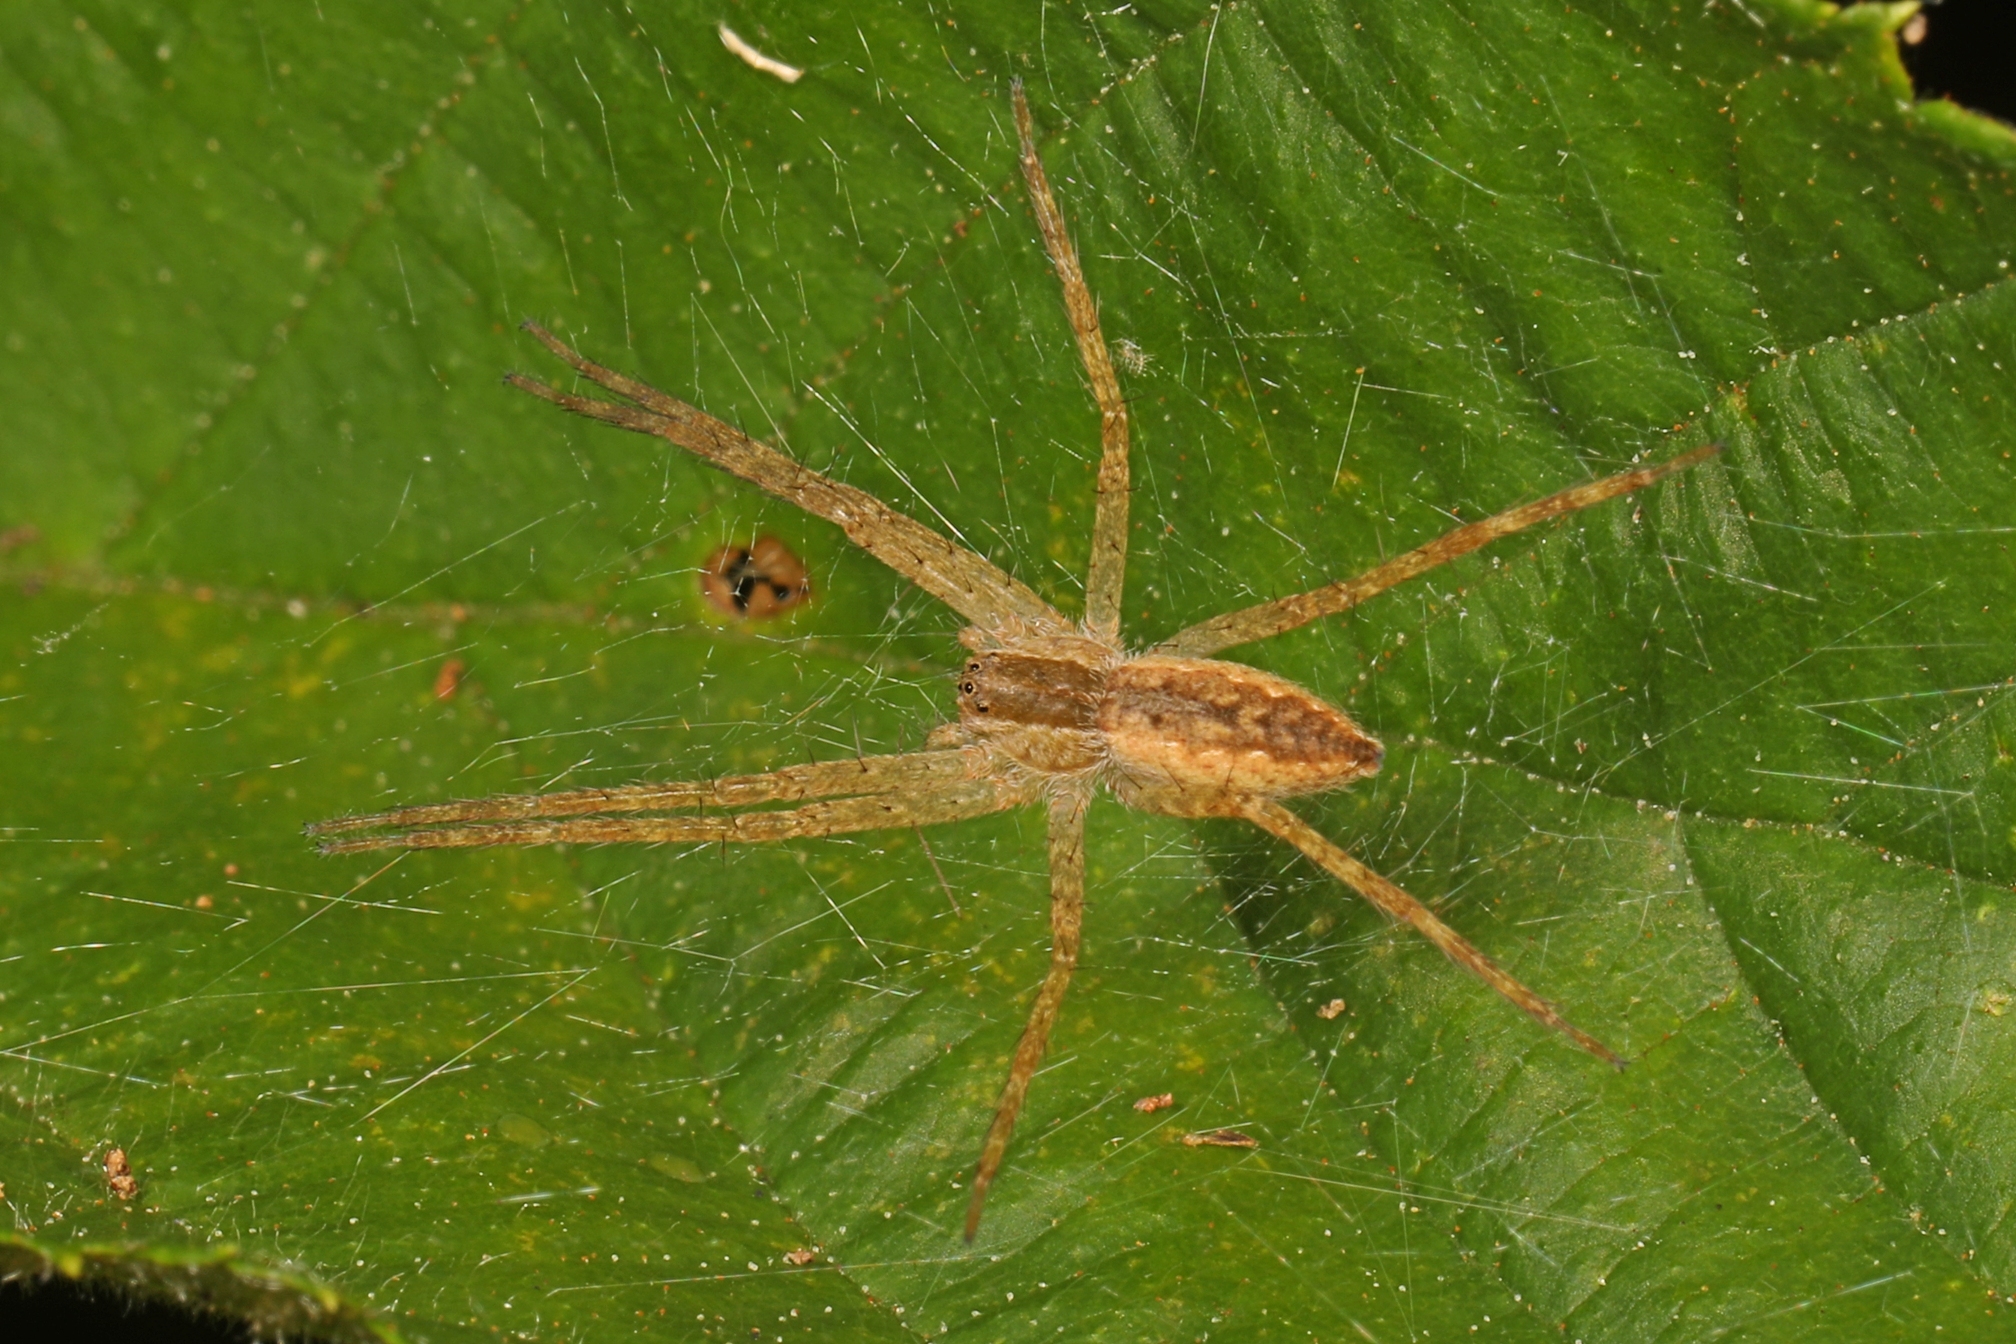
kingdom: Animalia
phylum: Arthropoda
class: Arachnida
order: Araneae
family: Pisauridae
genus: Pisaurina
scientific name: Pisaurina mira
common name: American nursery web spider
